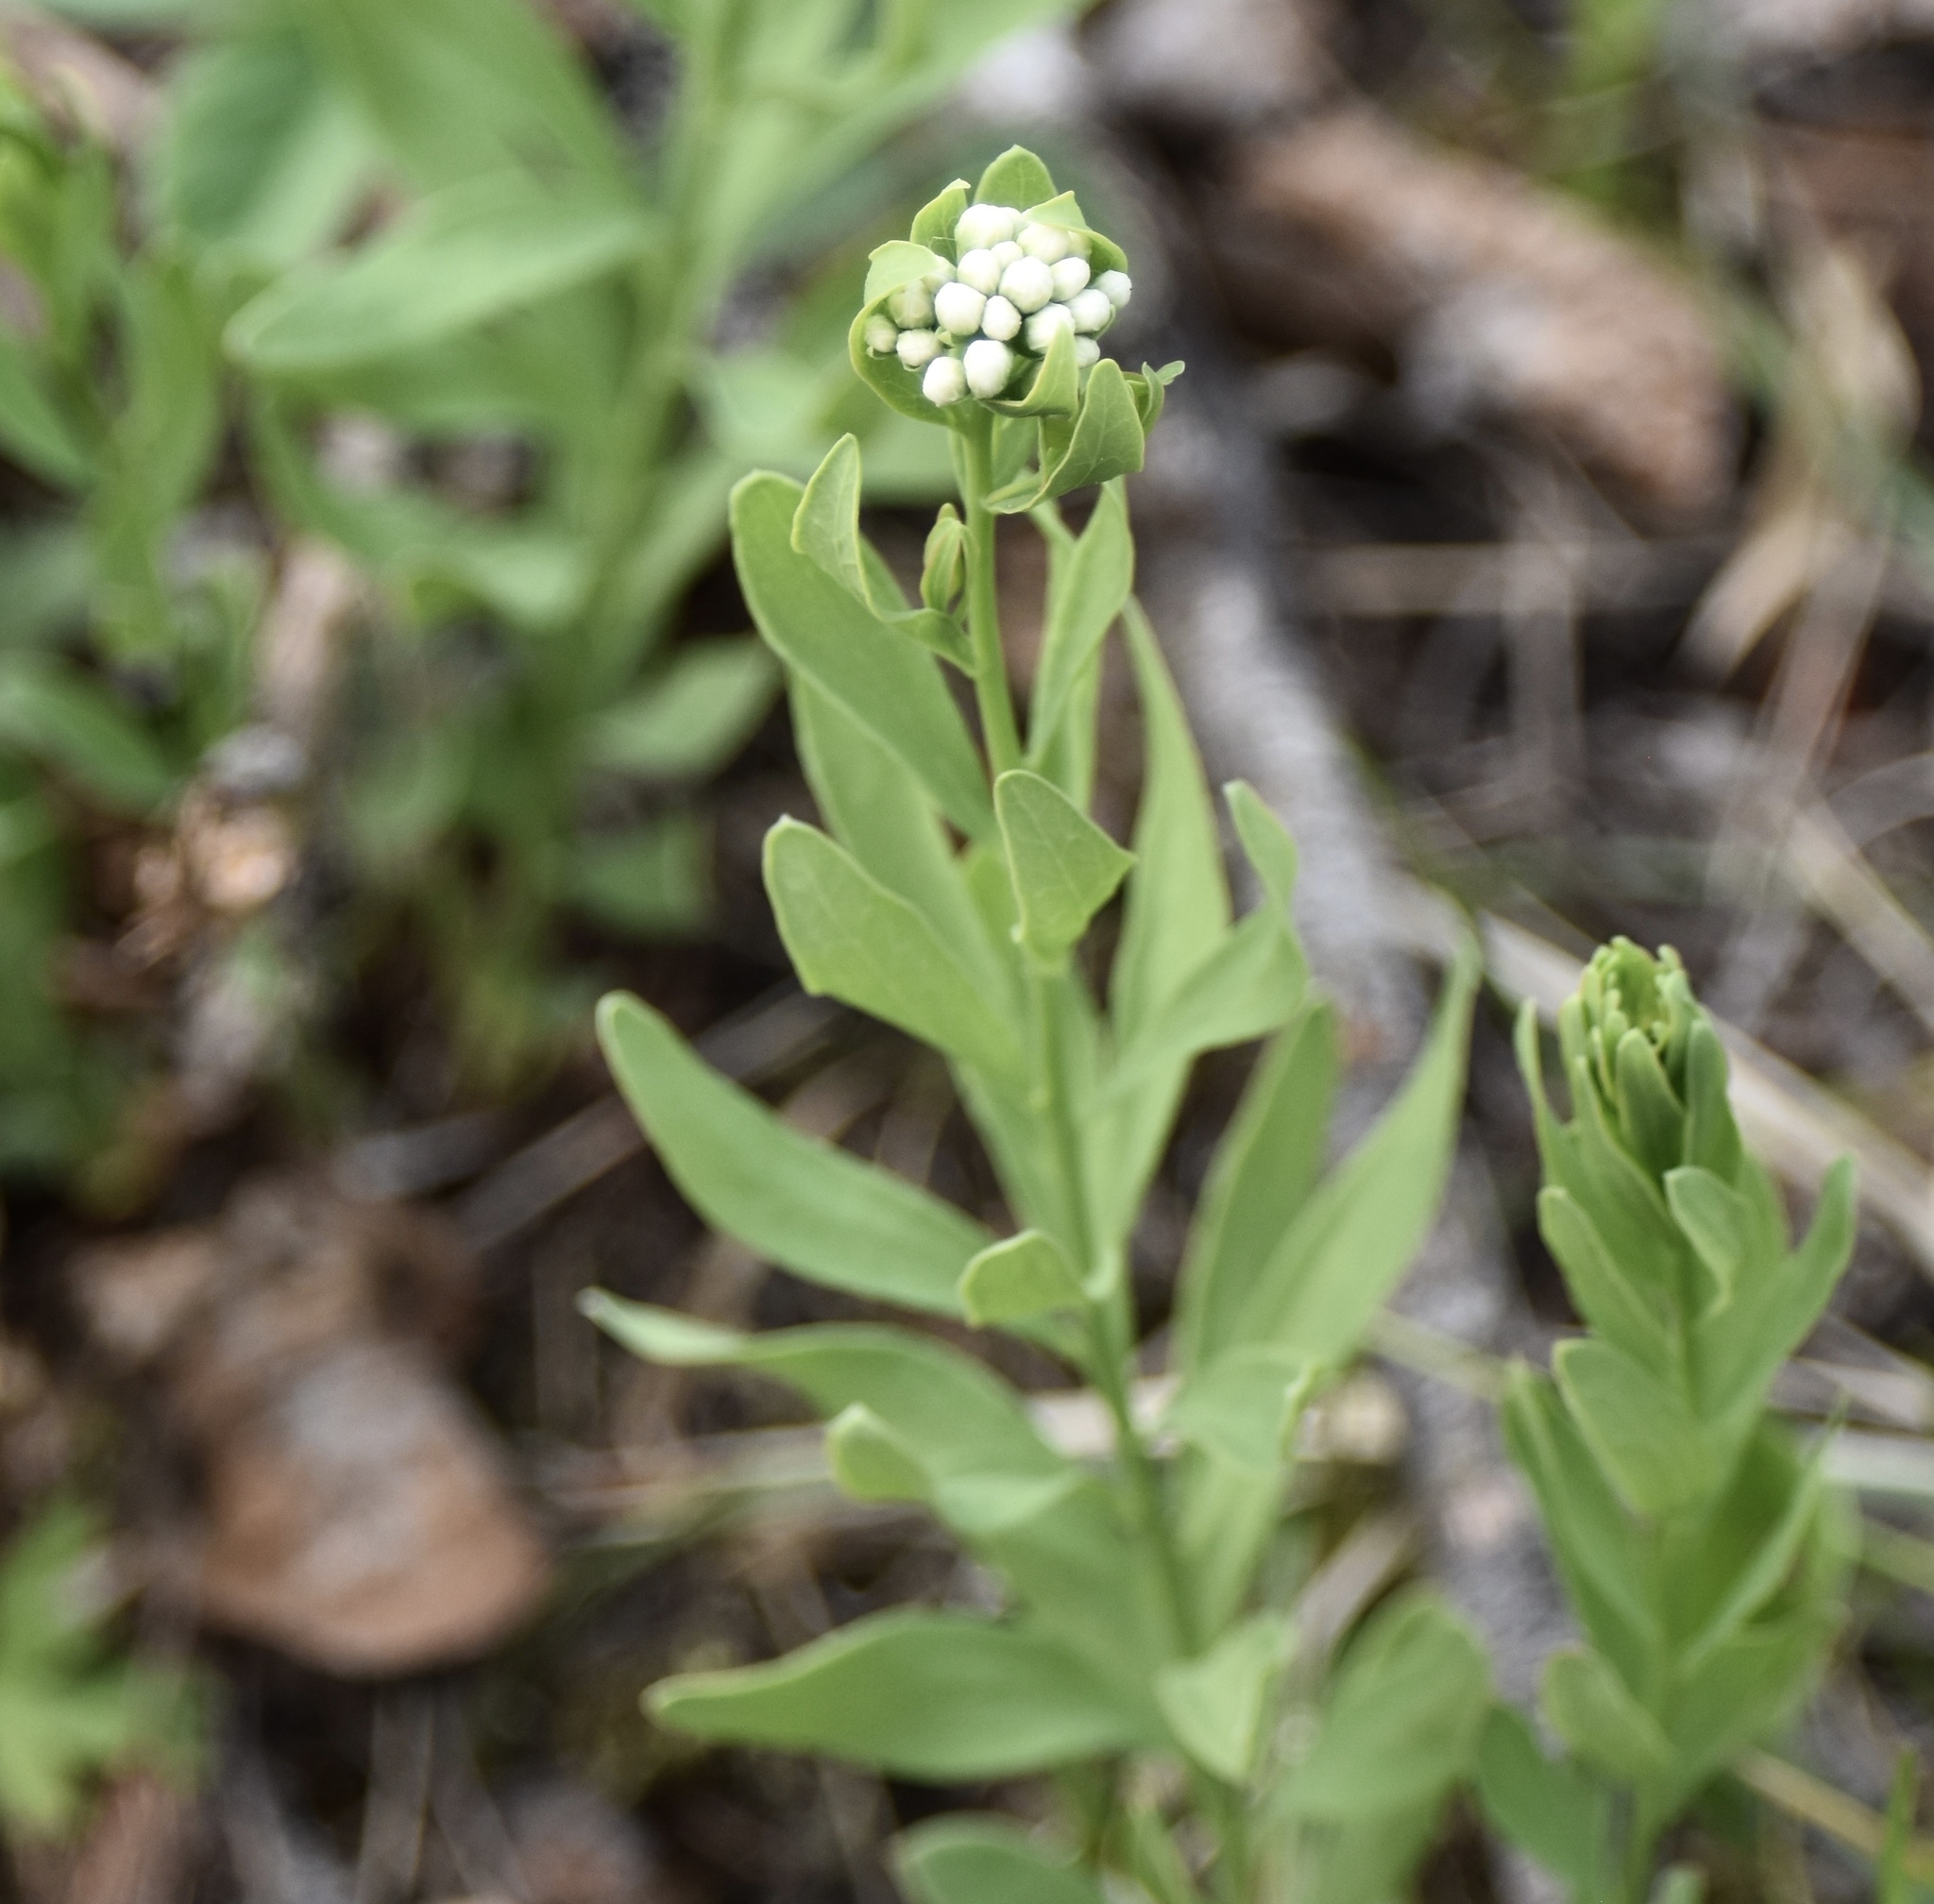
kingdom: Plantae
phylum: Tracheophyta
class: Magnoliopsida
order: Santalales
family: Comandraceae
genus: Comandra
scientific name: Comandra umbellata
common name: Bastard toadflax
